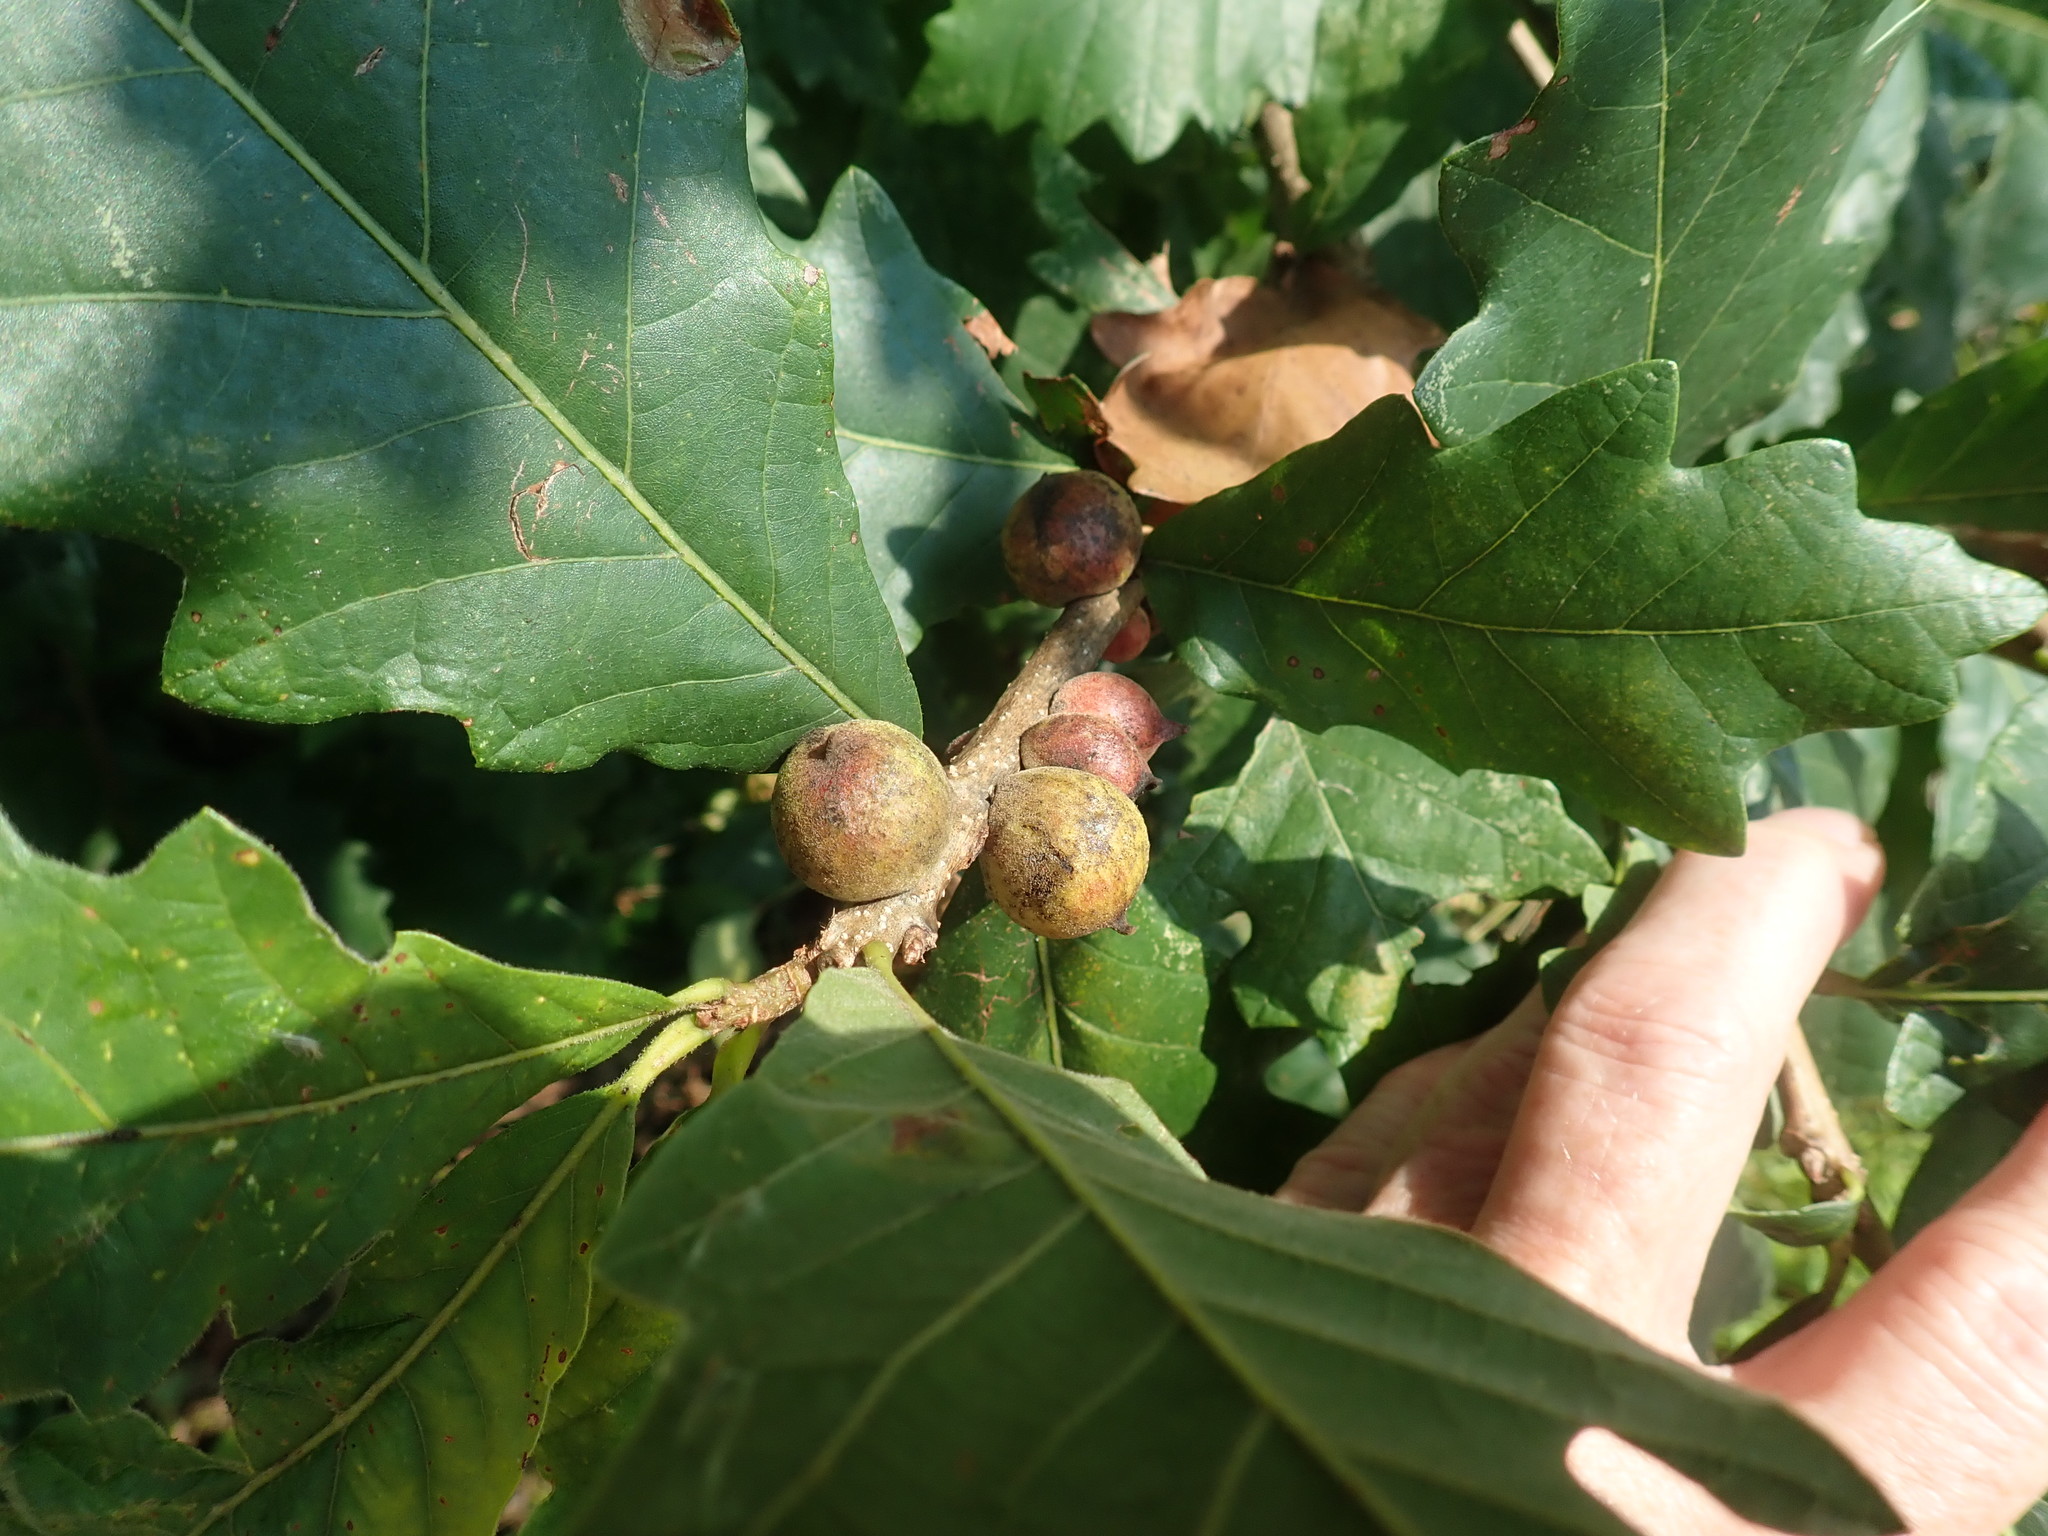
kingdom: Animalia
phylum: Arthropoda
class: Insecta
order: Hymenoptera
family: Cynipidae
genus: Disholcaspis
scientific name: Disholcaspis
